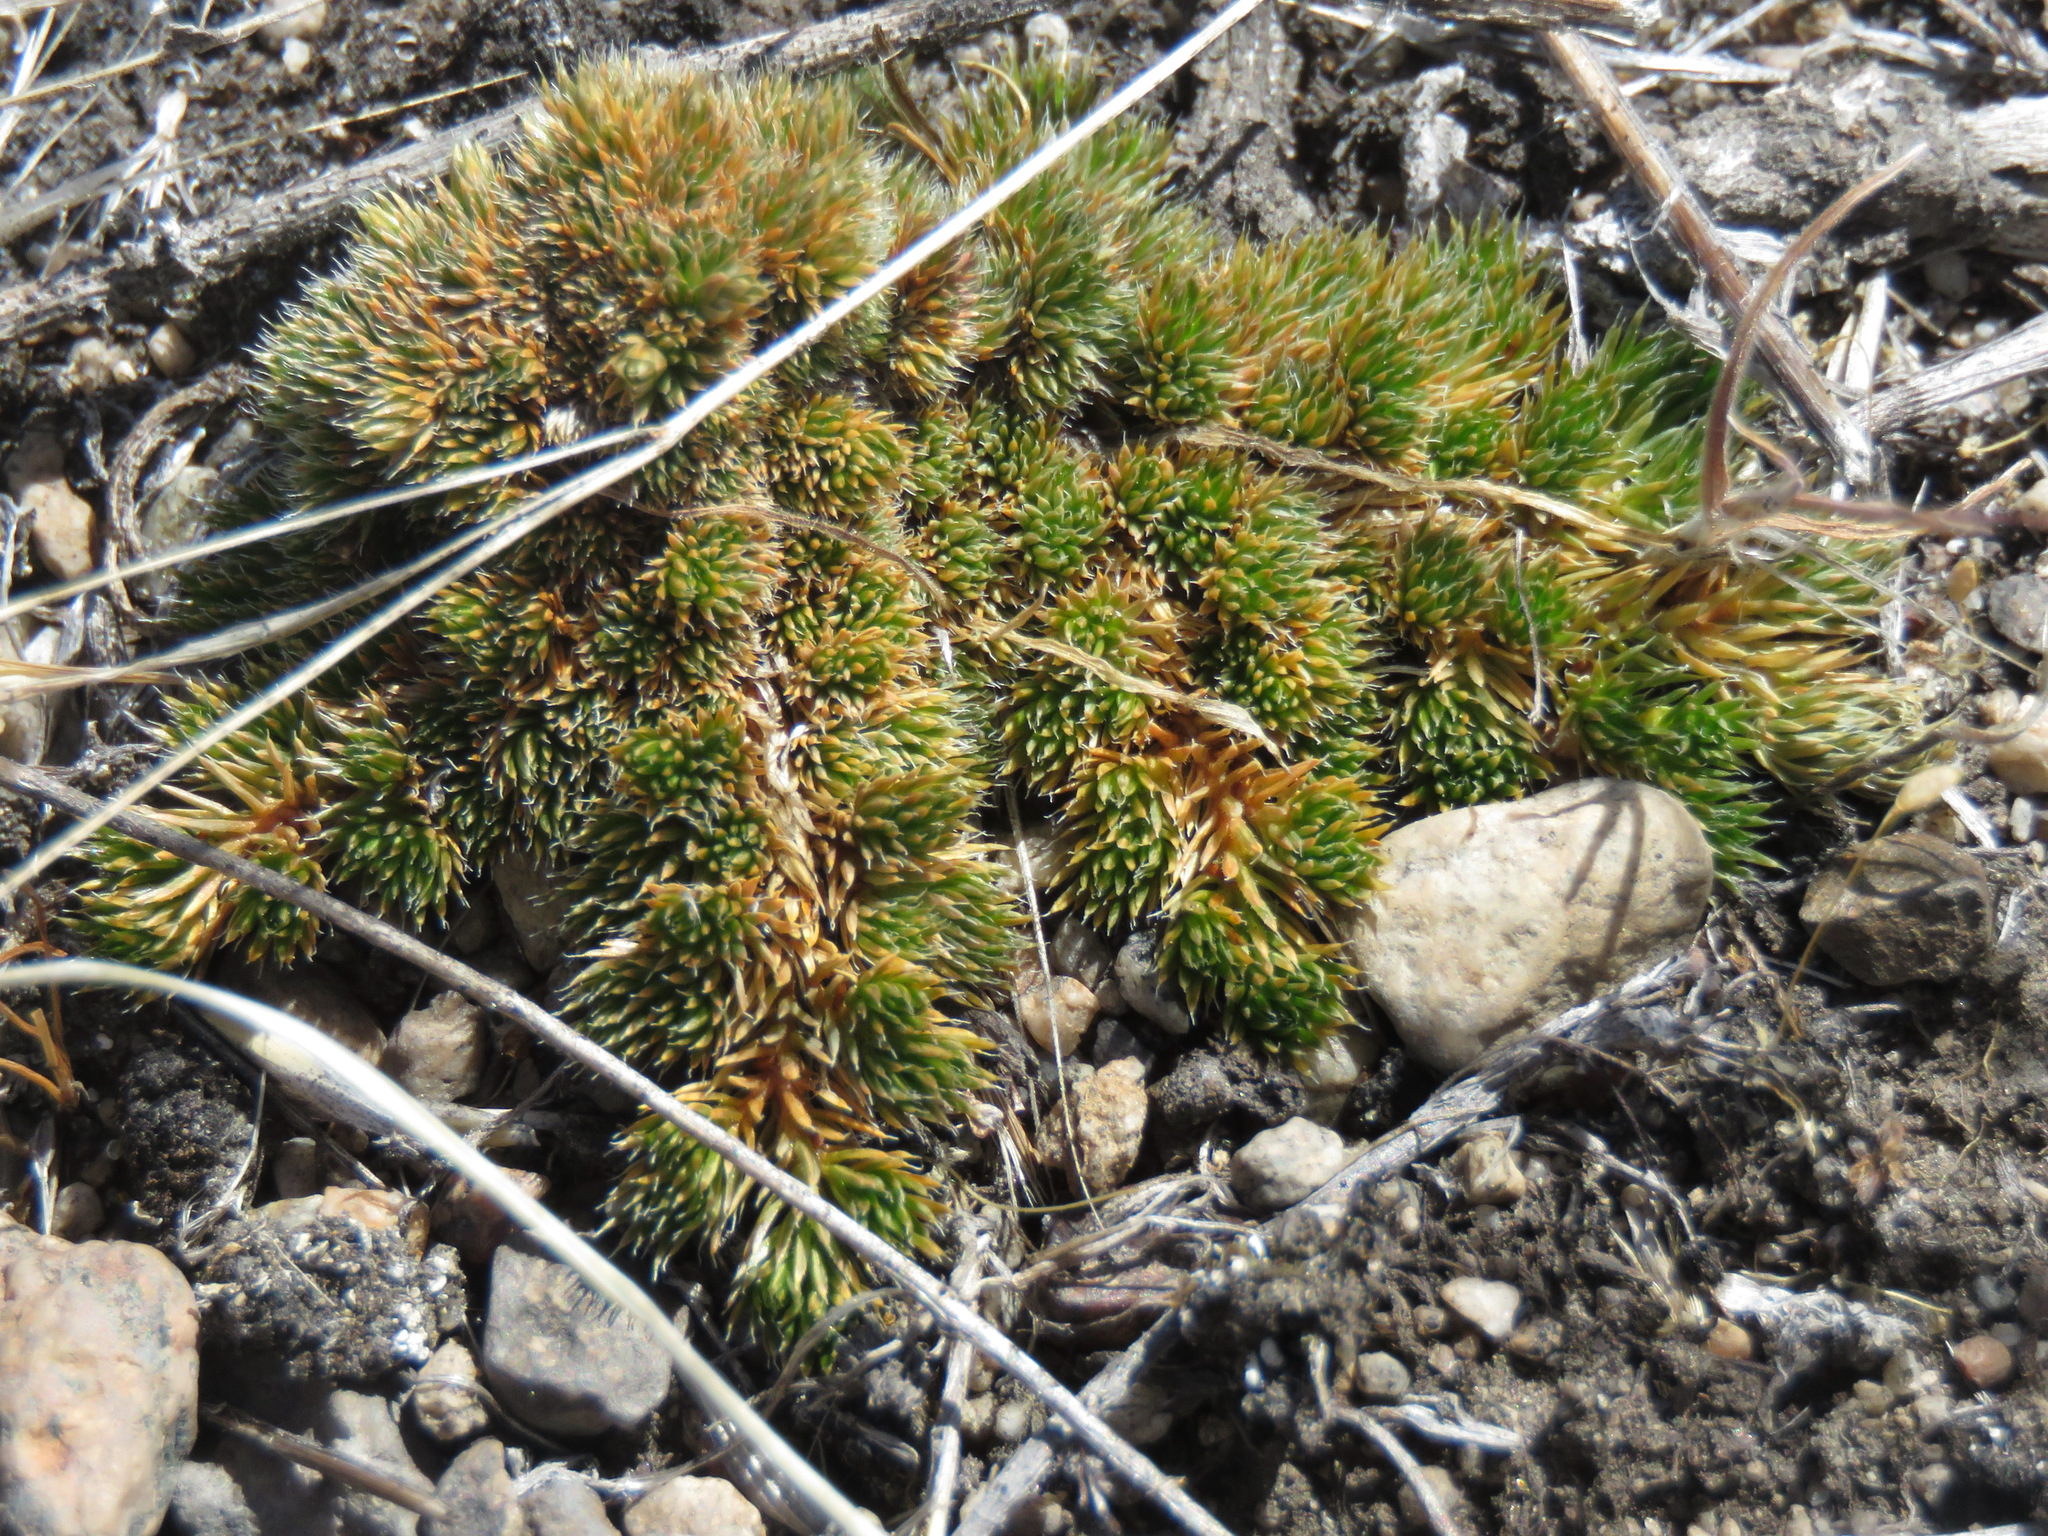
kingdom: Plantae
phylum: Tracheophyta
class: Lycopodiopsida
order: Selaginellales
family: Selaginellaceae
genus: Selaginella
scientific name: Selaginella densa
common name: Mountain spike-moss
